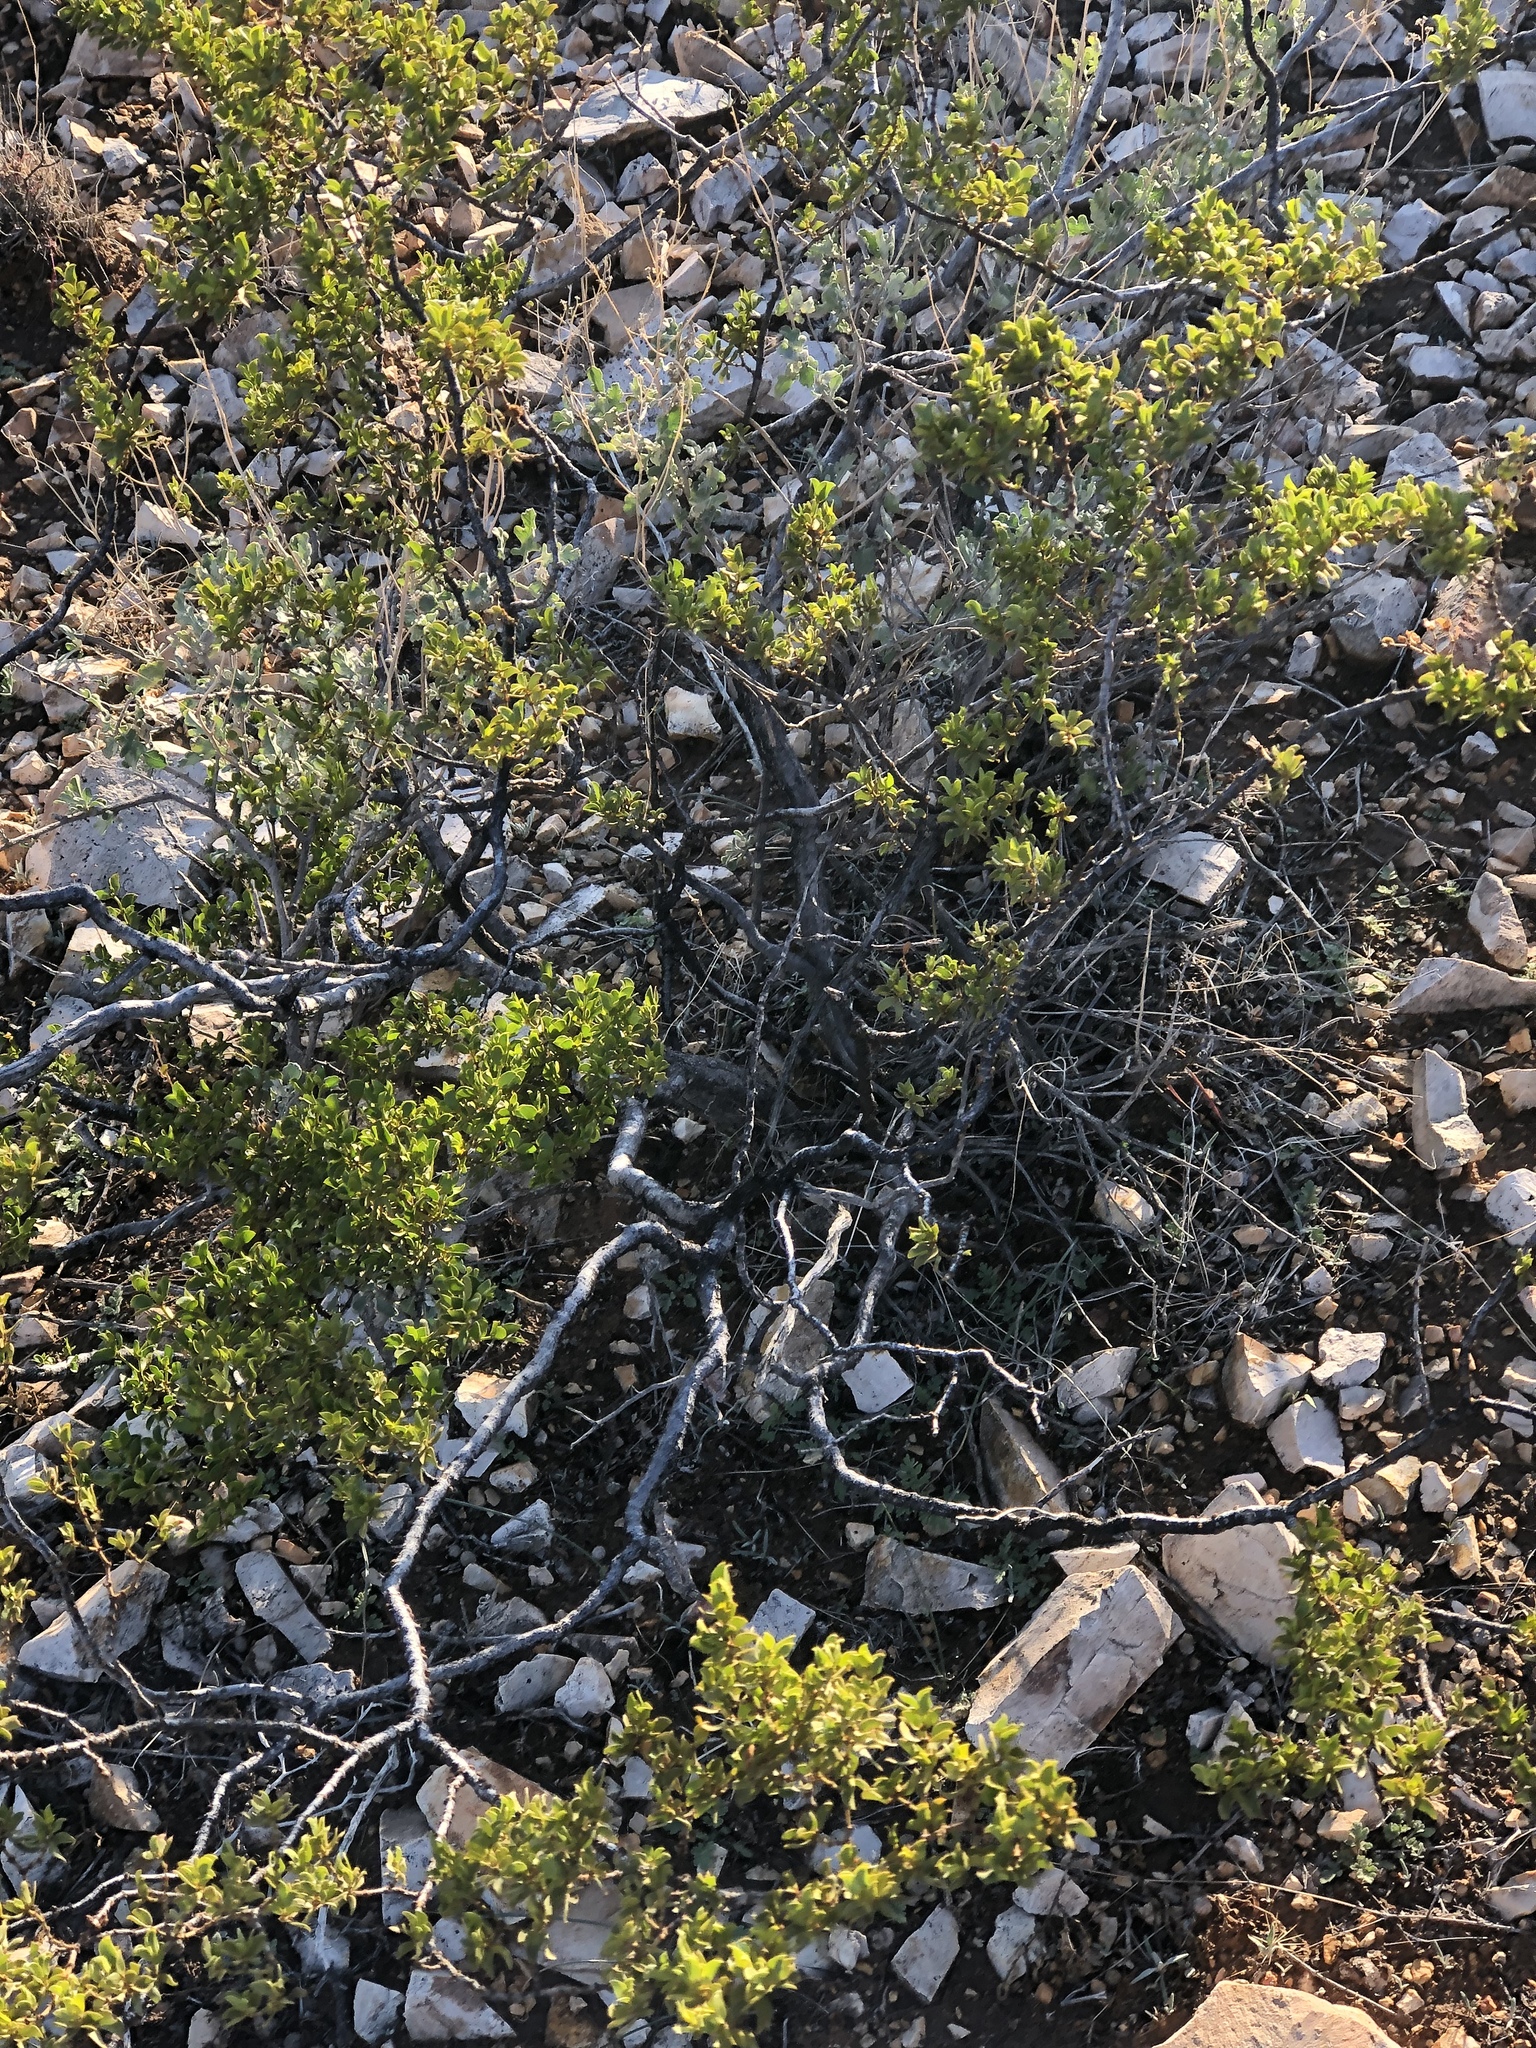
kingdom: Plantae
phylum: Tracheophyta
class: Magnoliopsida
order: Zygophyllales
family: Zygophyllaceae
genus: Larrea
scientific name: Larrea tridentata
